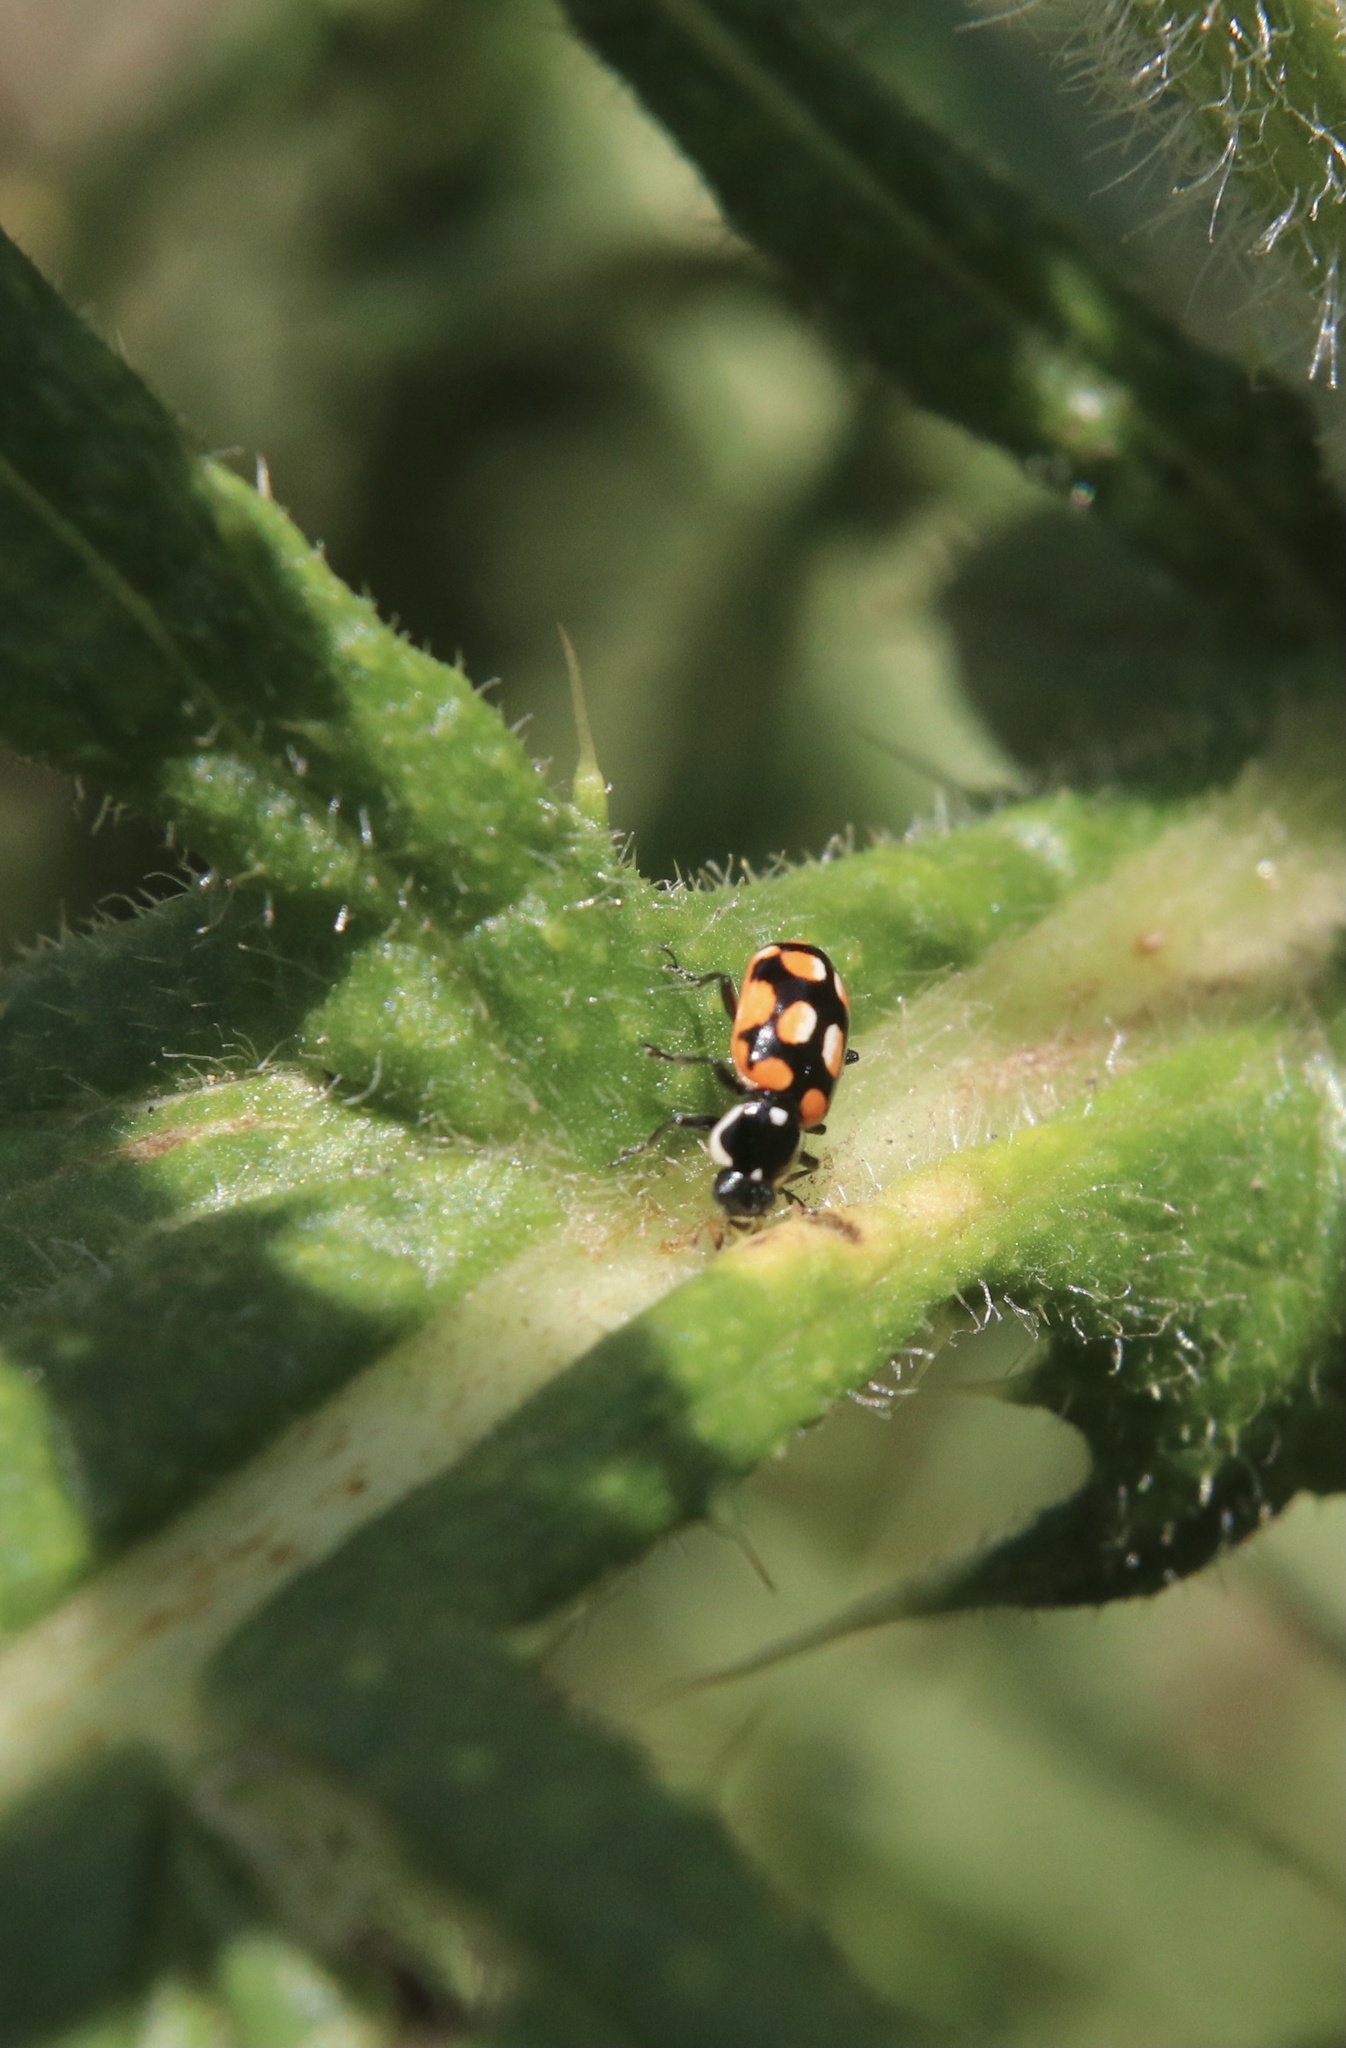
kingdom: Animalia
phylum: Arthropoda
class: Insecta
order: Coleoptera
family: Coccinellidae
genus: Eriopis
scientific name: Eriopis chilensis
